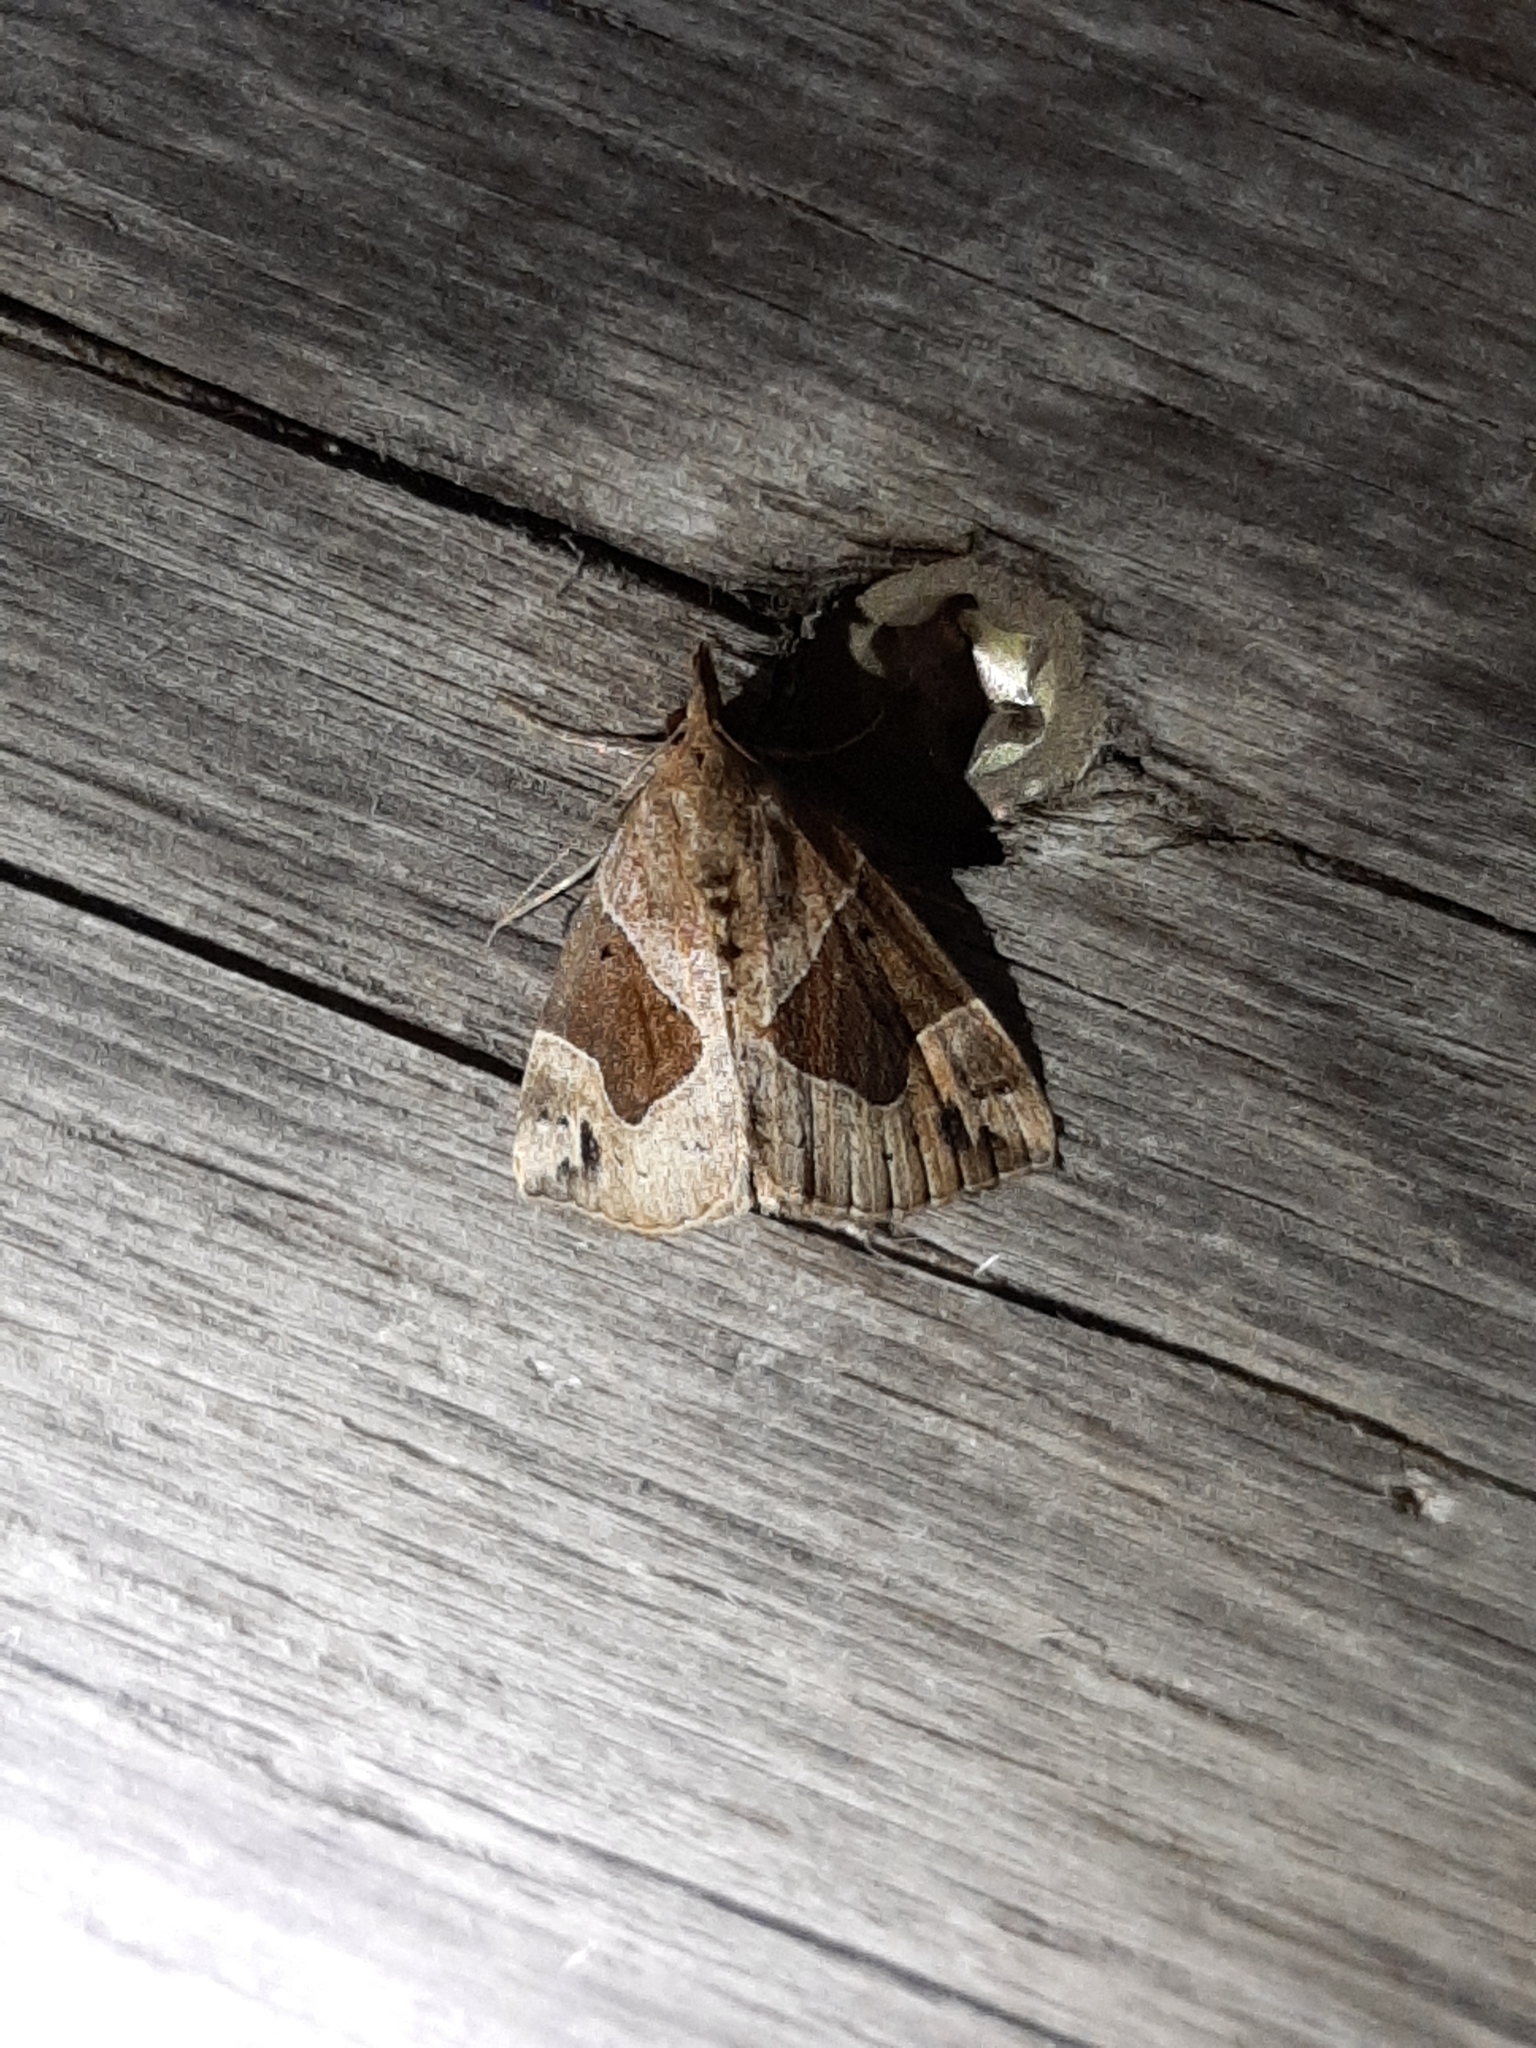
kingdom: Animalia
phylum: Arthropoda
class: Insecta
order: Lepidoptera
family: Erebidae
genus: Hypena
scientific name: Hypena manalis
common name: Flowing-line bomolocha moth
